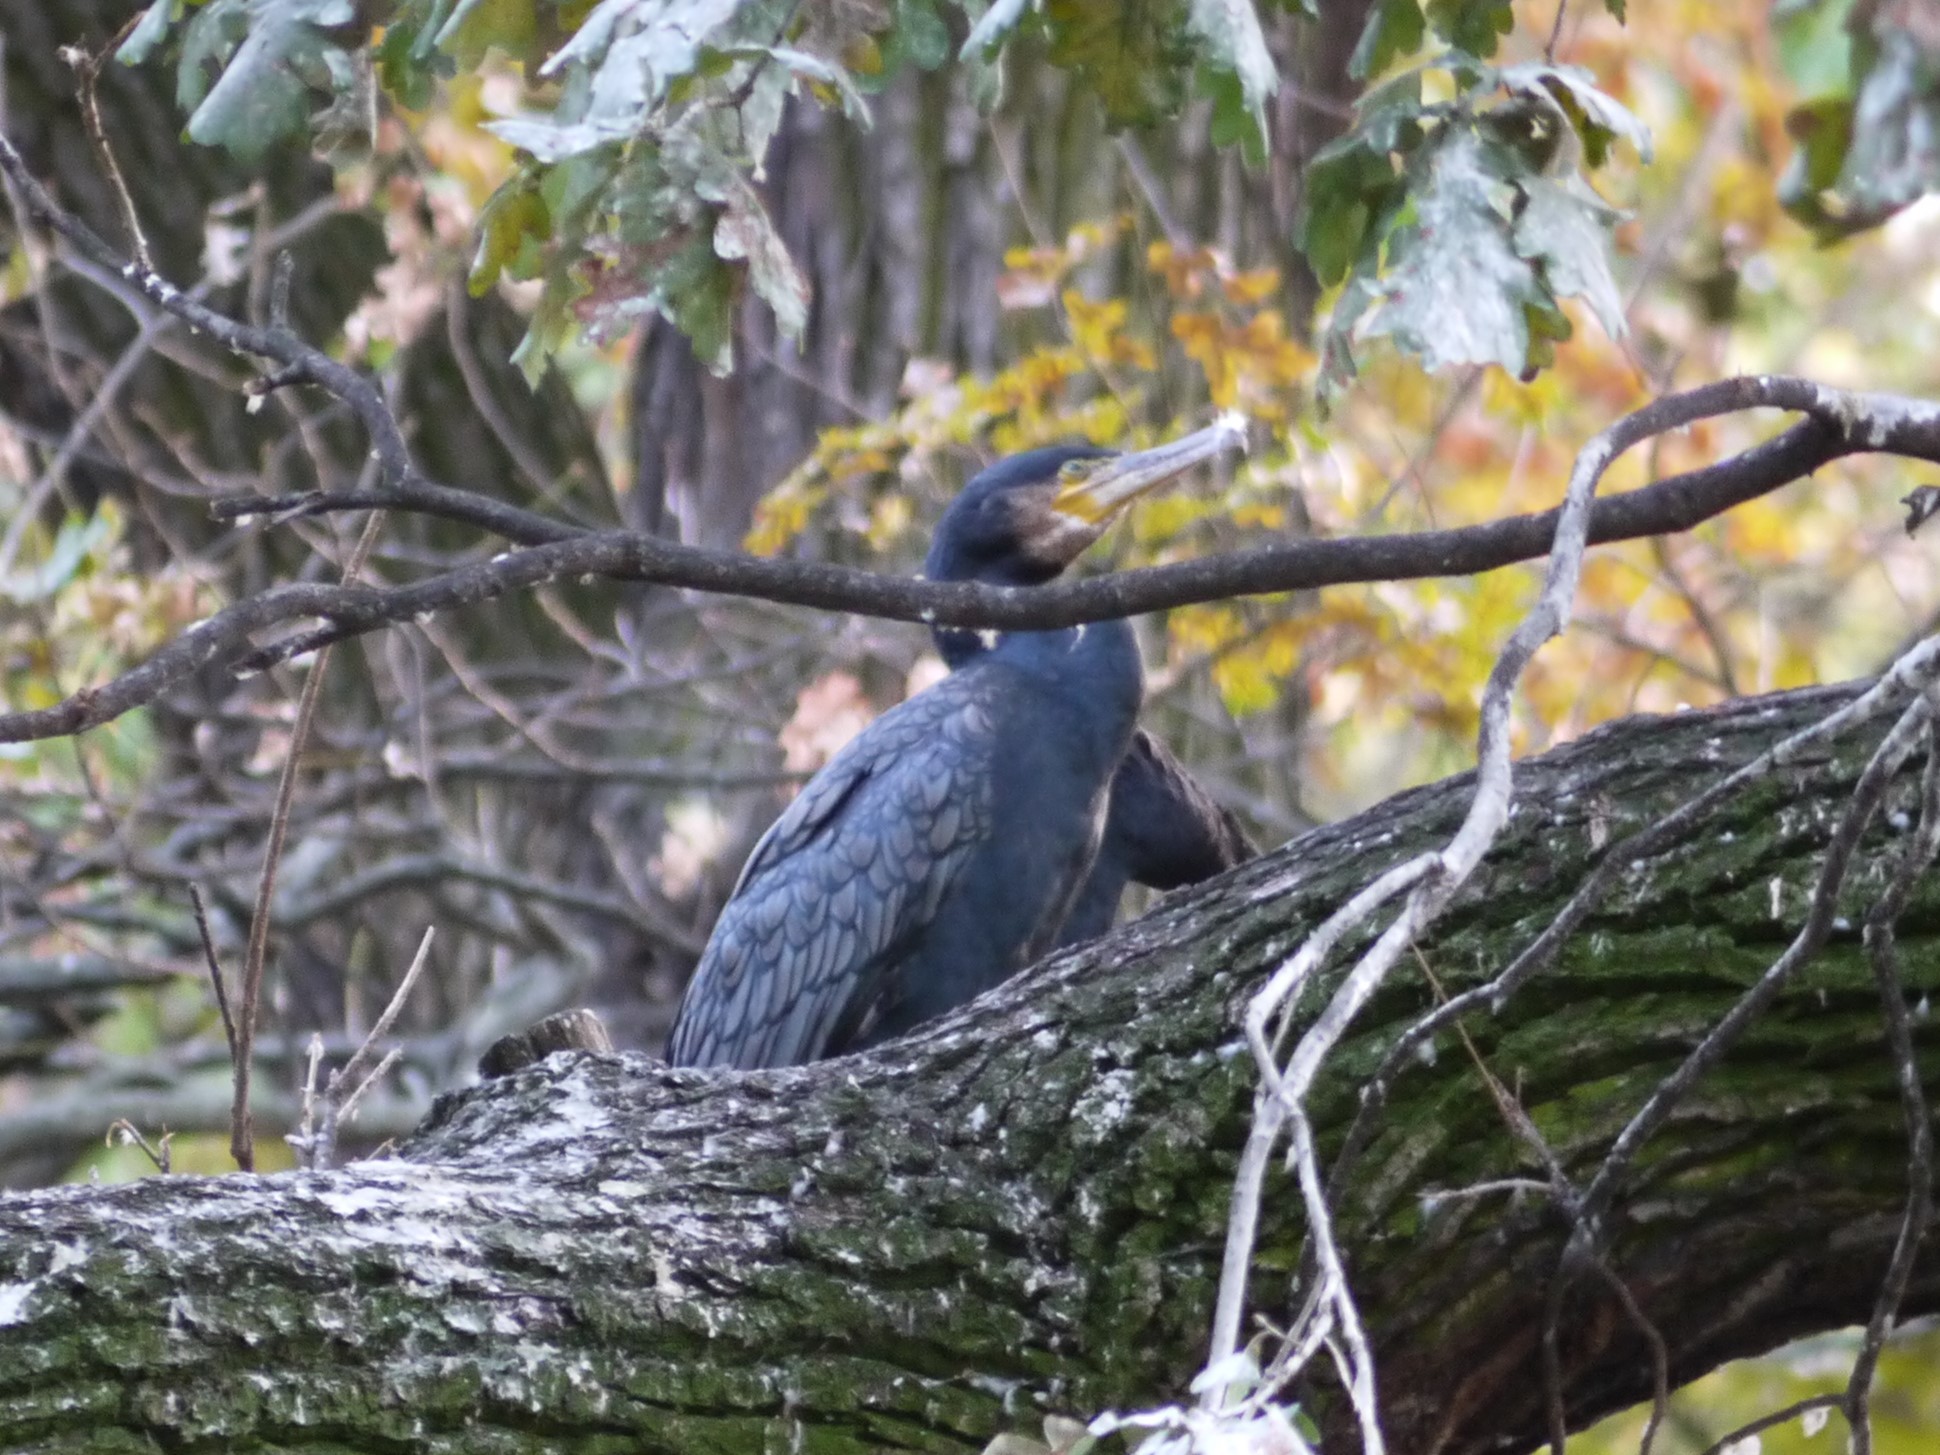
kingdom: Animalia
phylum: Chordata
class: Aves
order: Suliformes
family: Phalacrocoracidae
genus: Phalacrocorax
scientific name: Phalacrocorax carbo
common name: Great cormorant
